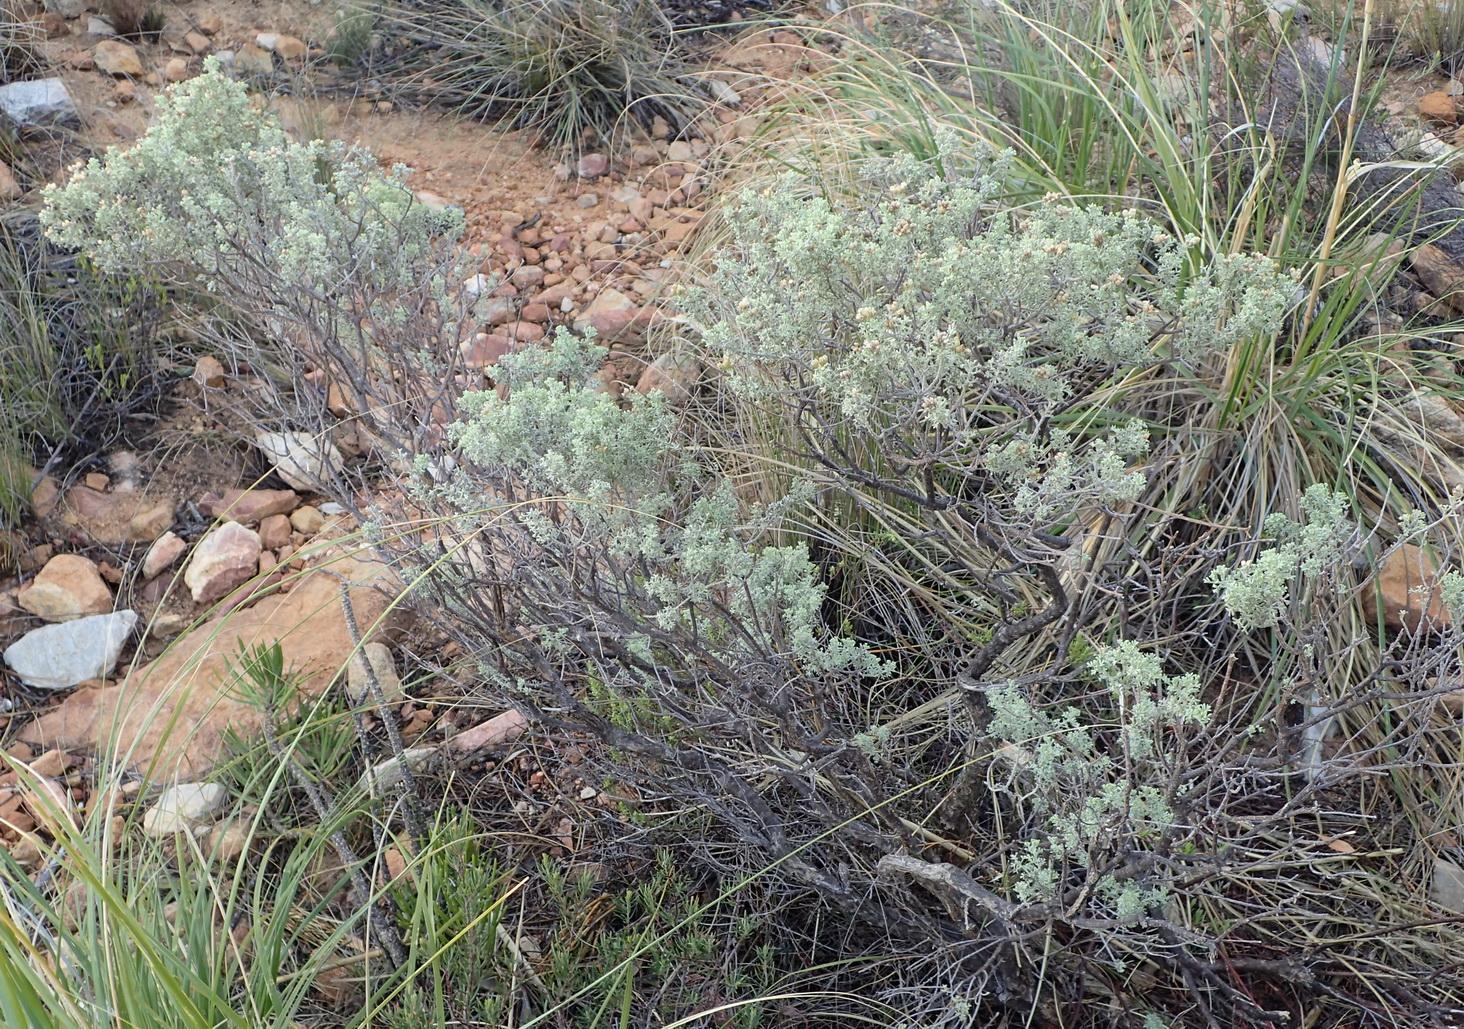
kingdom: Plantae
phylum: Tracheophyta
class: Magnoliopsida
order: Asterales
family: Asteraceae
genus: Pentzia
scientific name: Pentzia elegans
